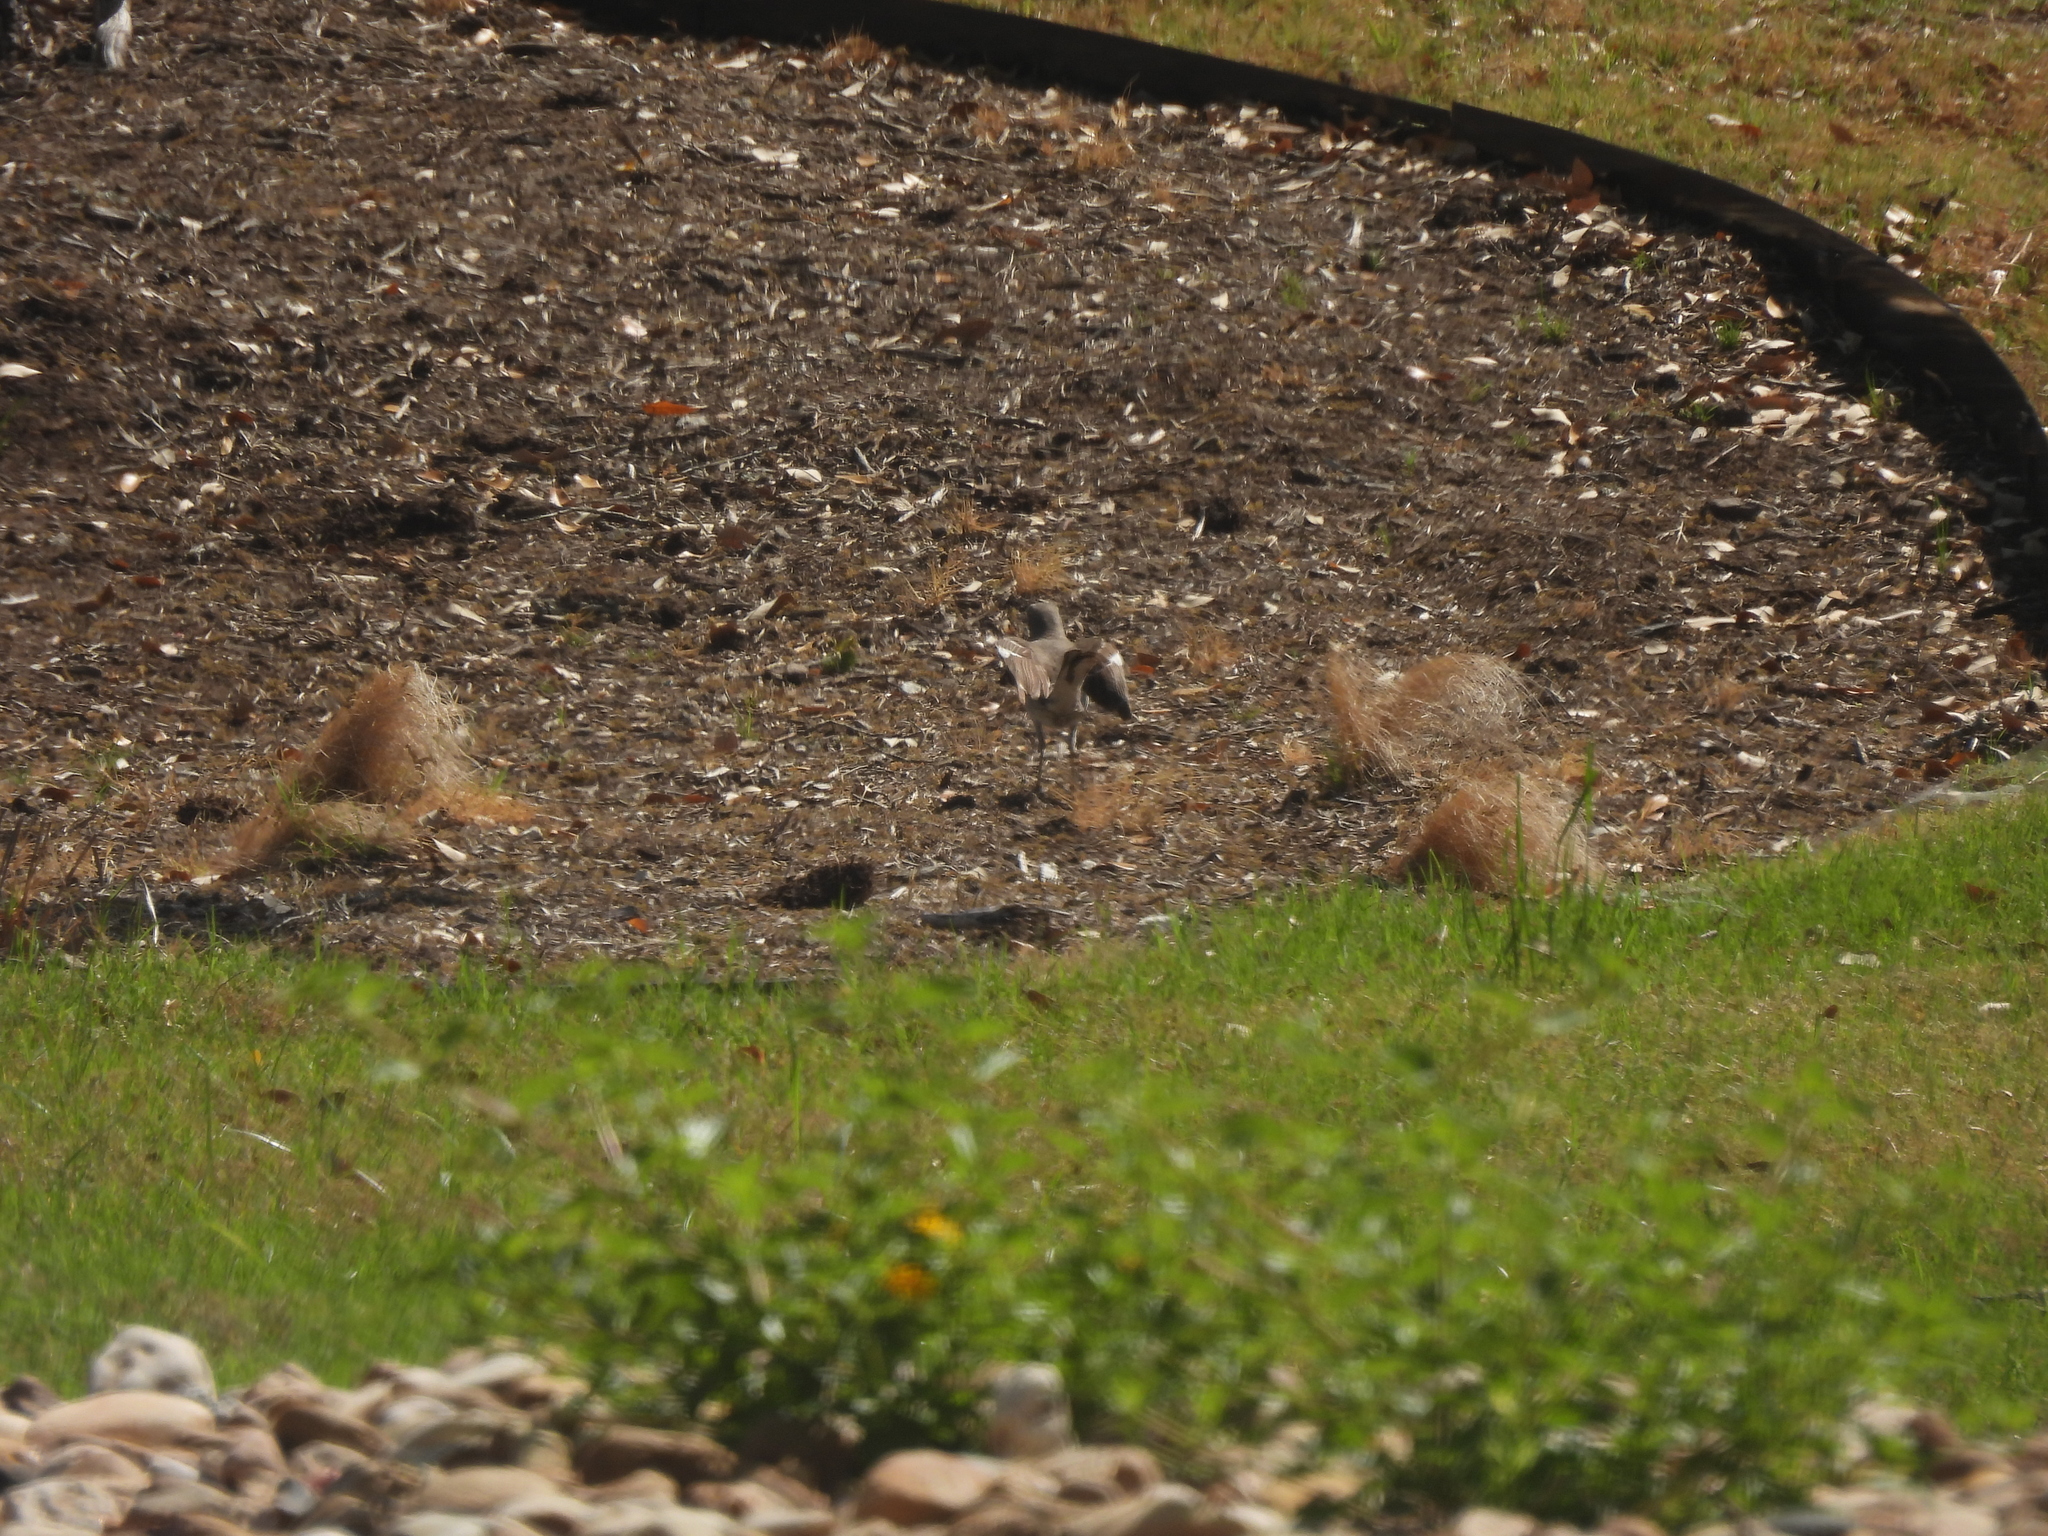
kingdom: Animalia
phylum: Chordata
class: Aves
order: Passeriformes
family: Mimidae
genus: Mimus
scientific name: Mimus polyglottos
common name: Northern mockingbird
